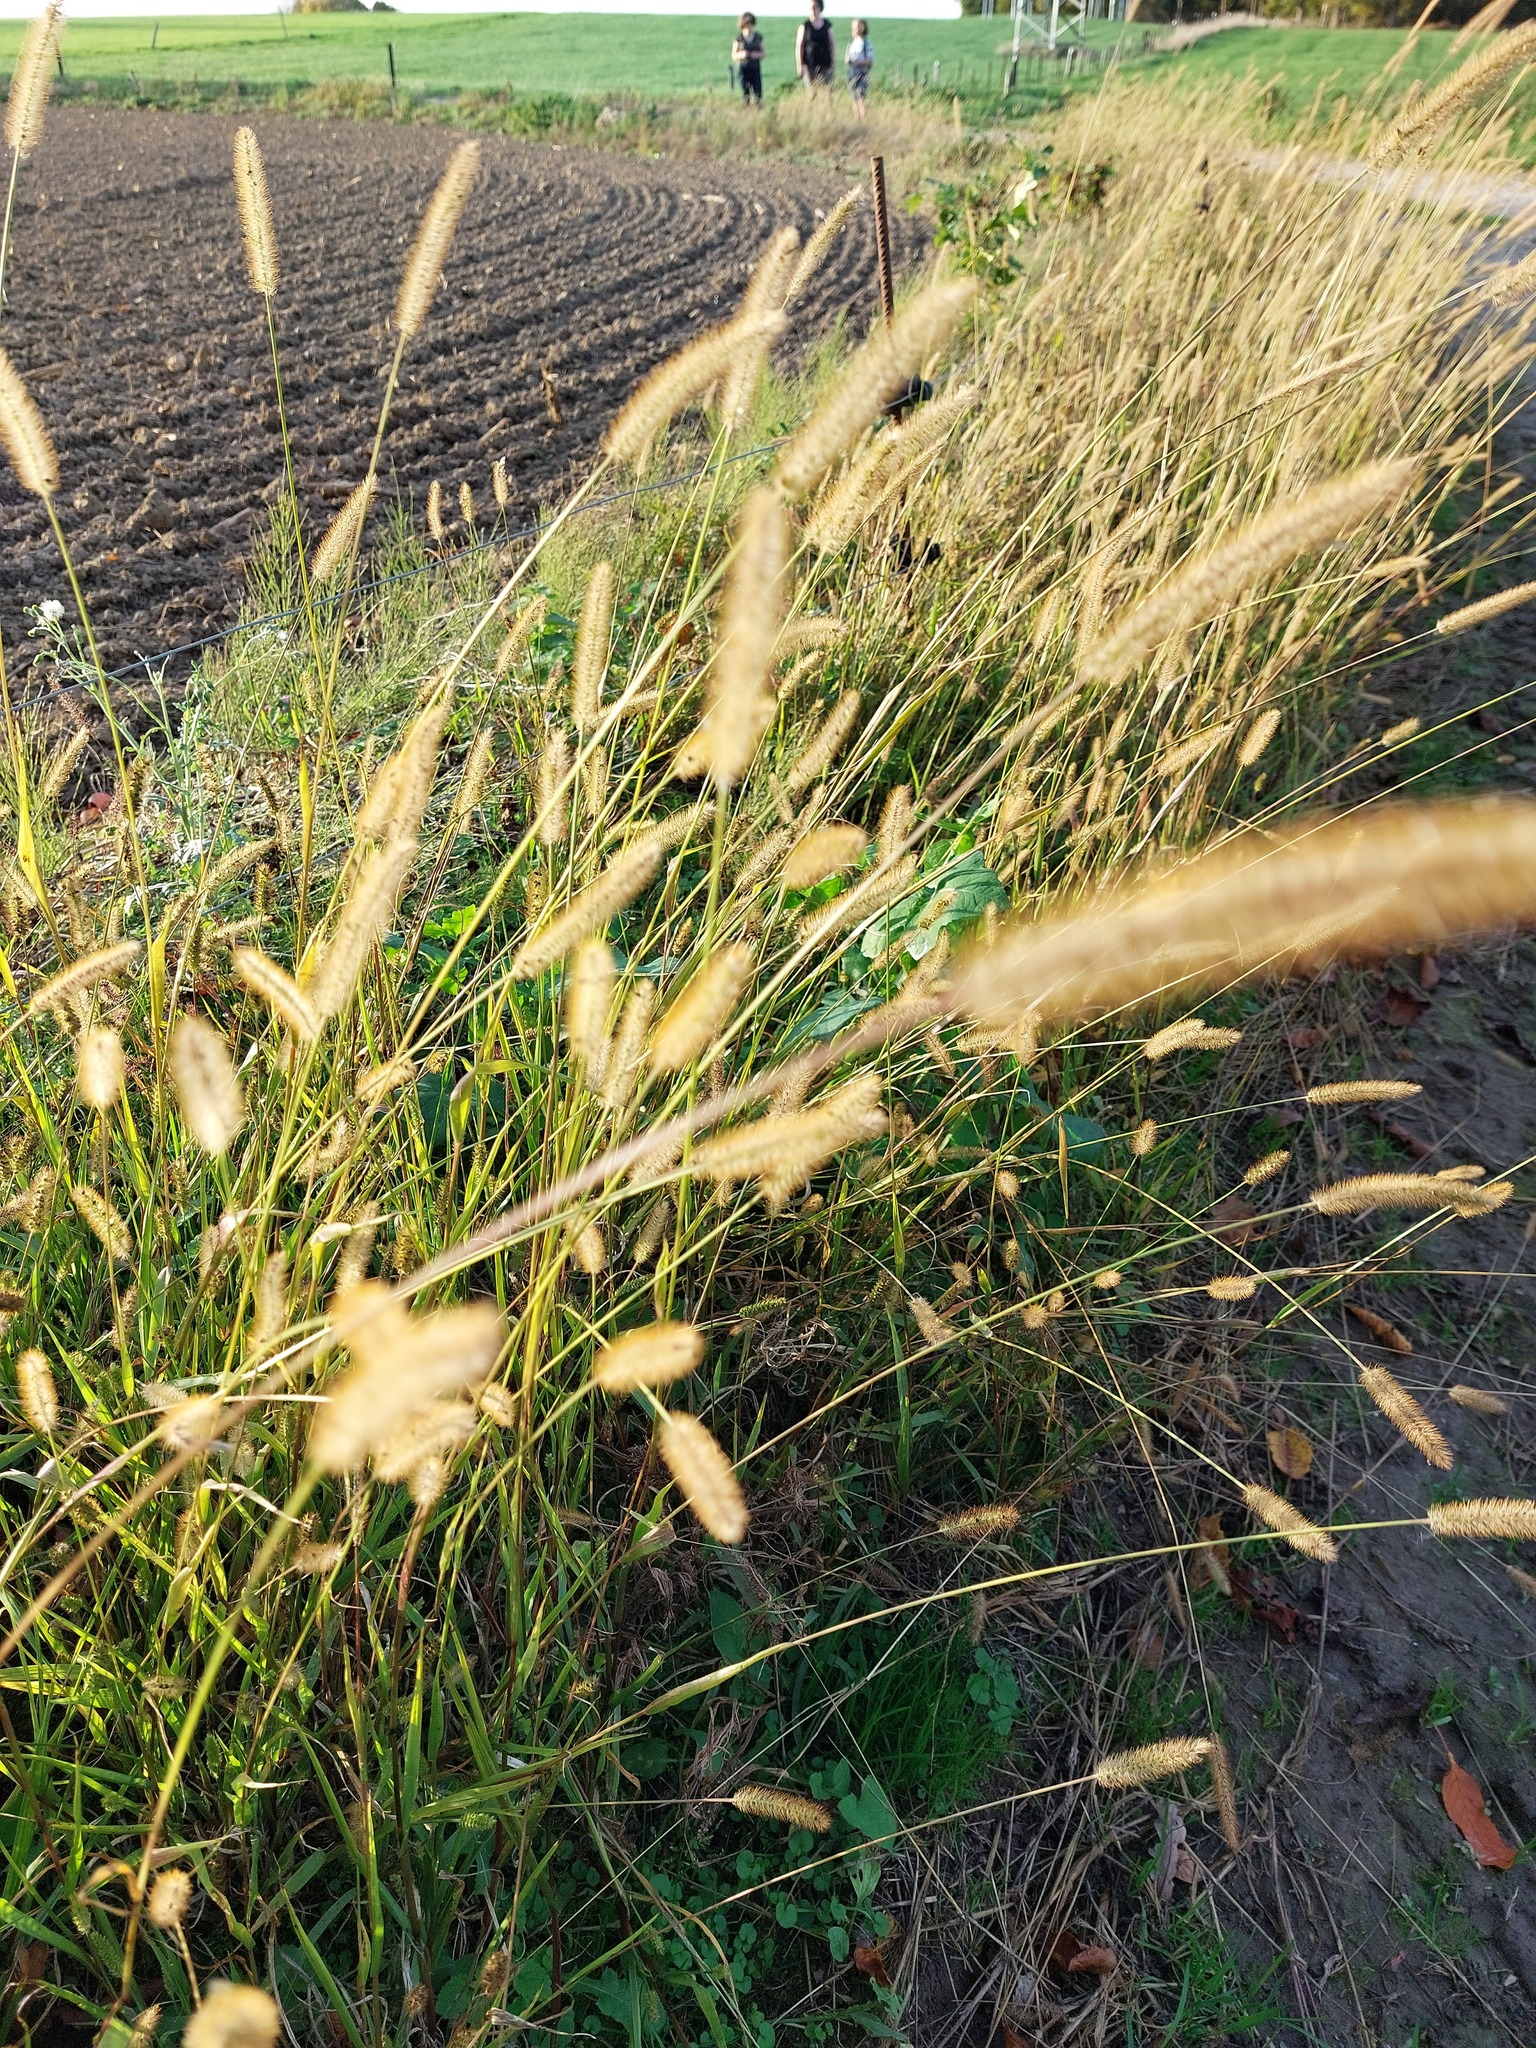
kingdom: Plantae
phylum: Tracheophyta
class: Liliopsida
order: Poales
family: Poaceae
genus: Setaria
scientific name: Setaria pumila
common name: Yellow bristle-grass
